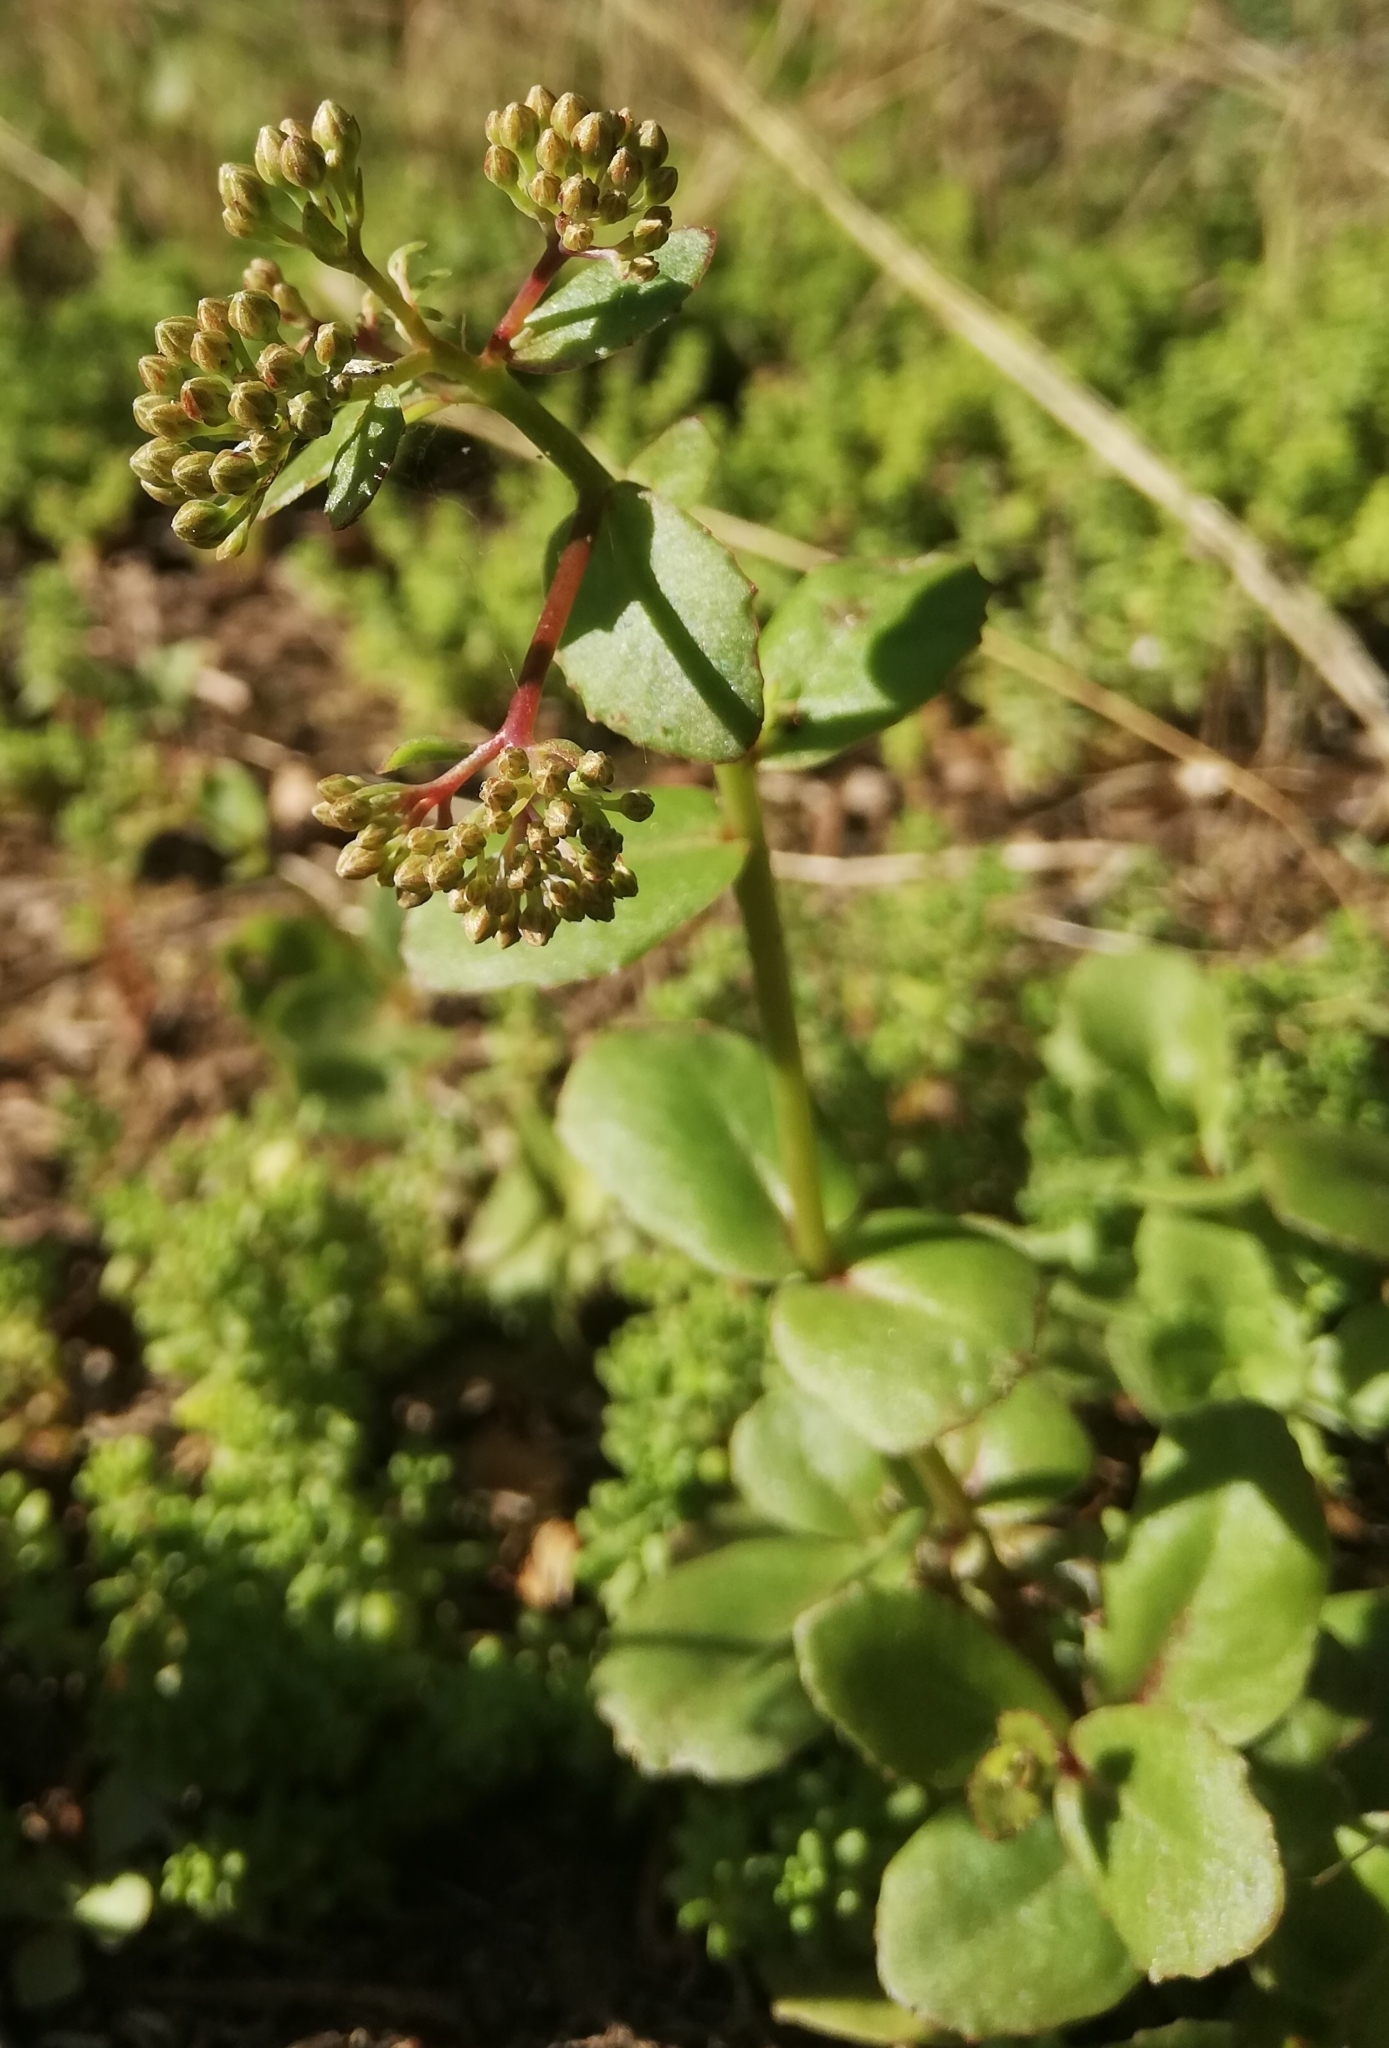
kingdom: Plantae
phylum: Tracheophyta
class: Magnoliopsida
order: Saxifragales
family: Crassulaceae
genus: Hylotelephium
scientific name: Hylotelephium maximum
